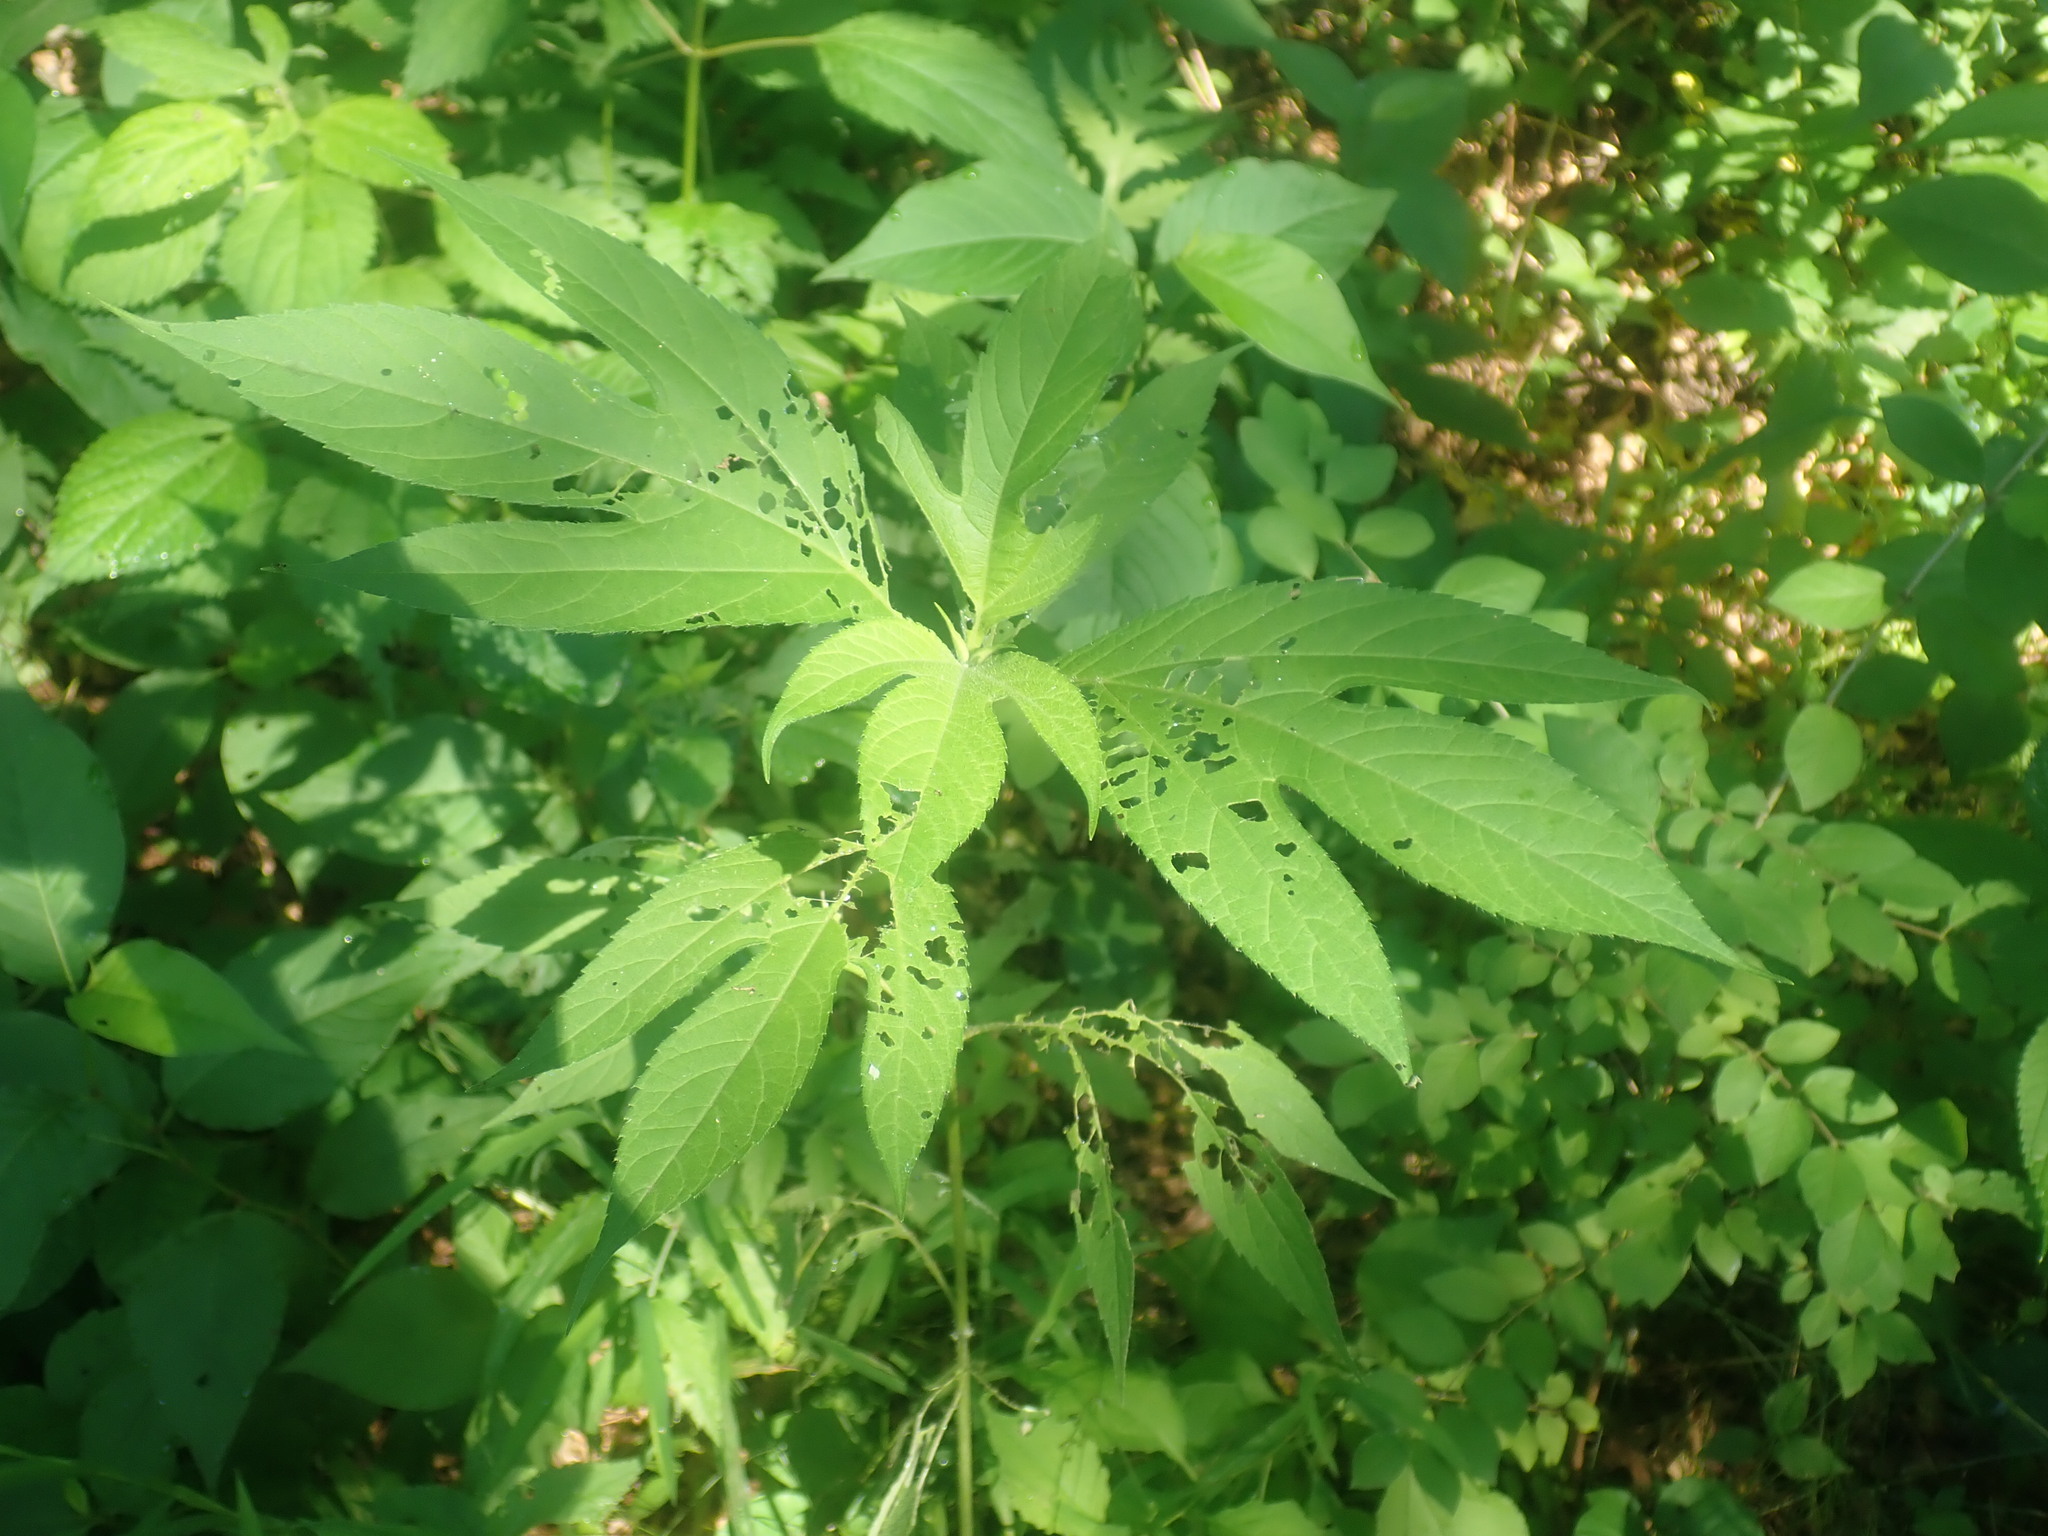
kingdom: Plantae
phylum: Tracheophyta
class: Magnoliopsida
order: Asterales
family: Asteraceae
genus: Ambrosia
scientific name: Ambrosia trifida
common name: Giant ragweed
